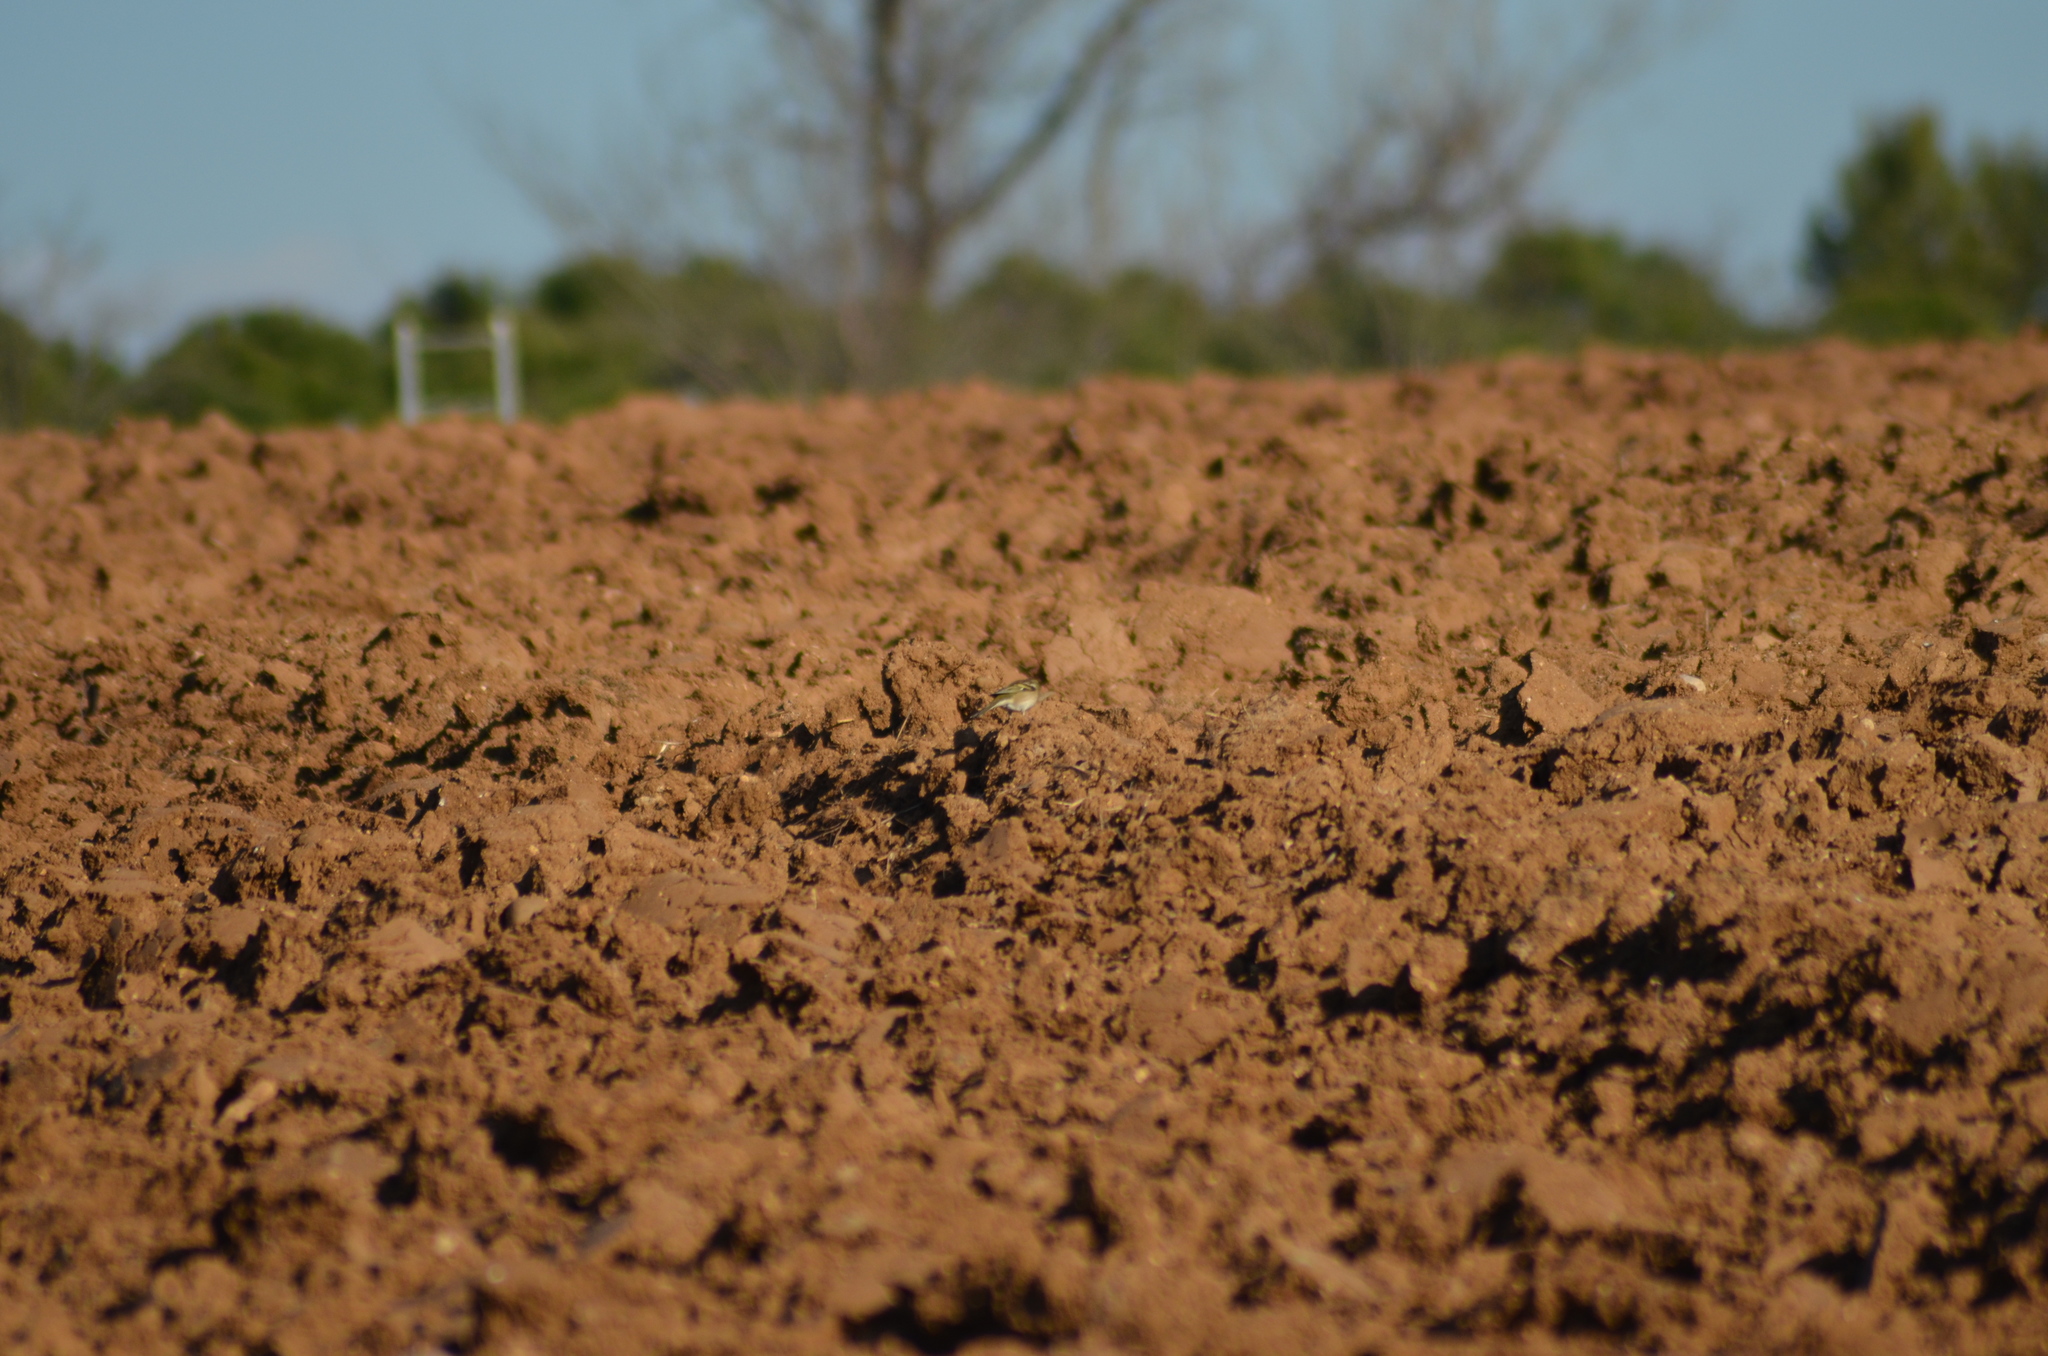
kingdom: Animalia
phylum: Chordata
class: Aves
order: Passeriformes
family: Fringillidae
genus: Fringilla
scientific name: Fringilla coelebs
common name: Common chaffinch
